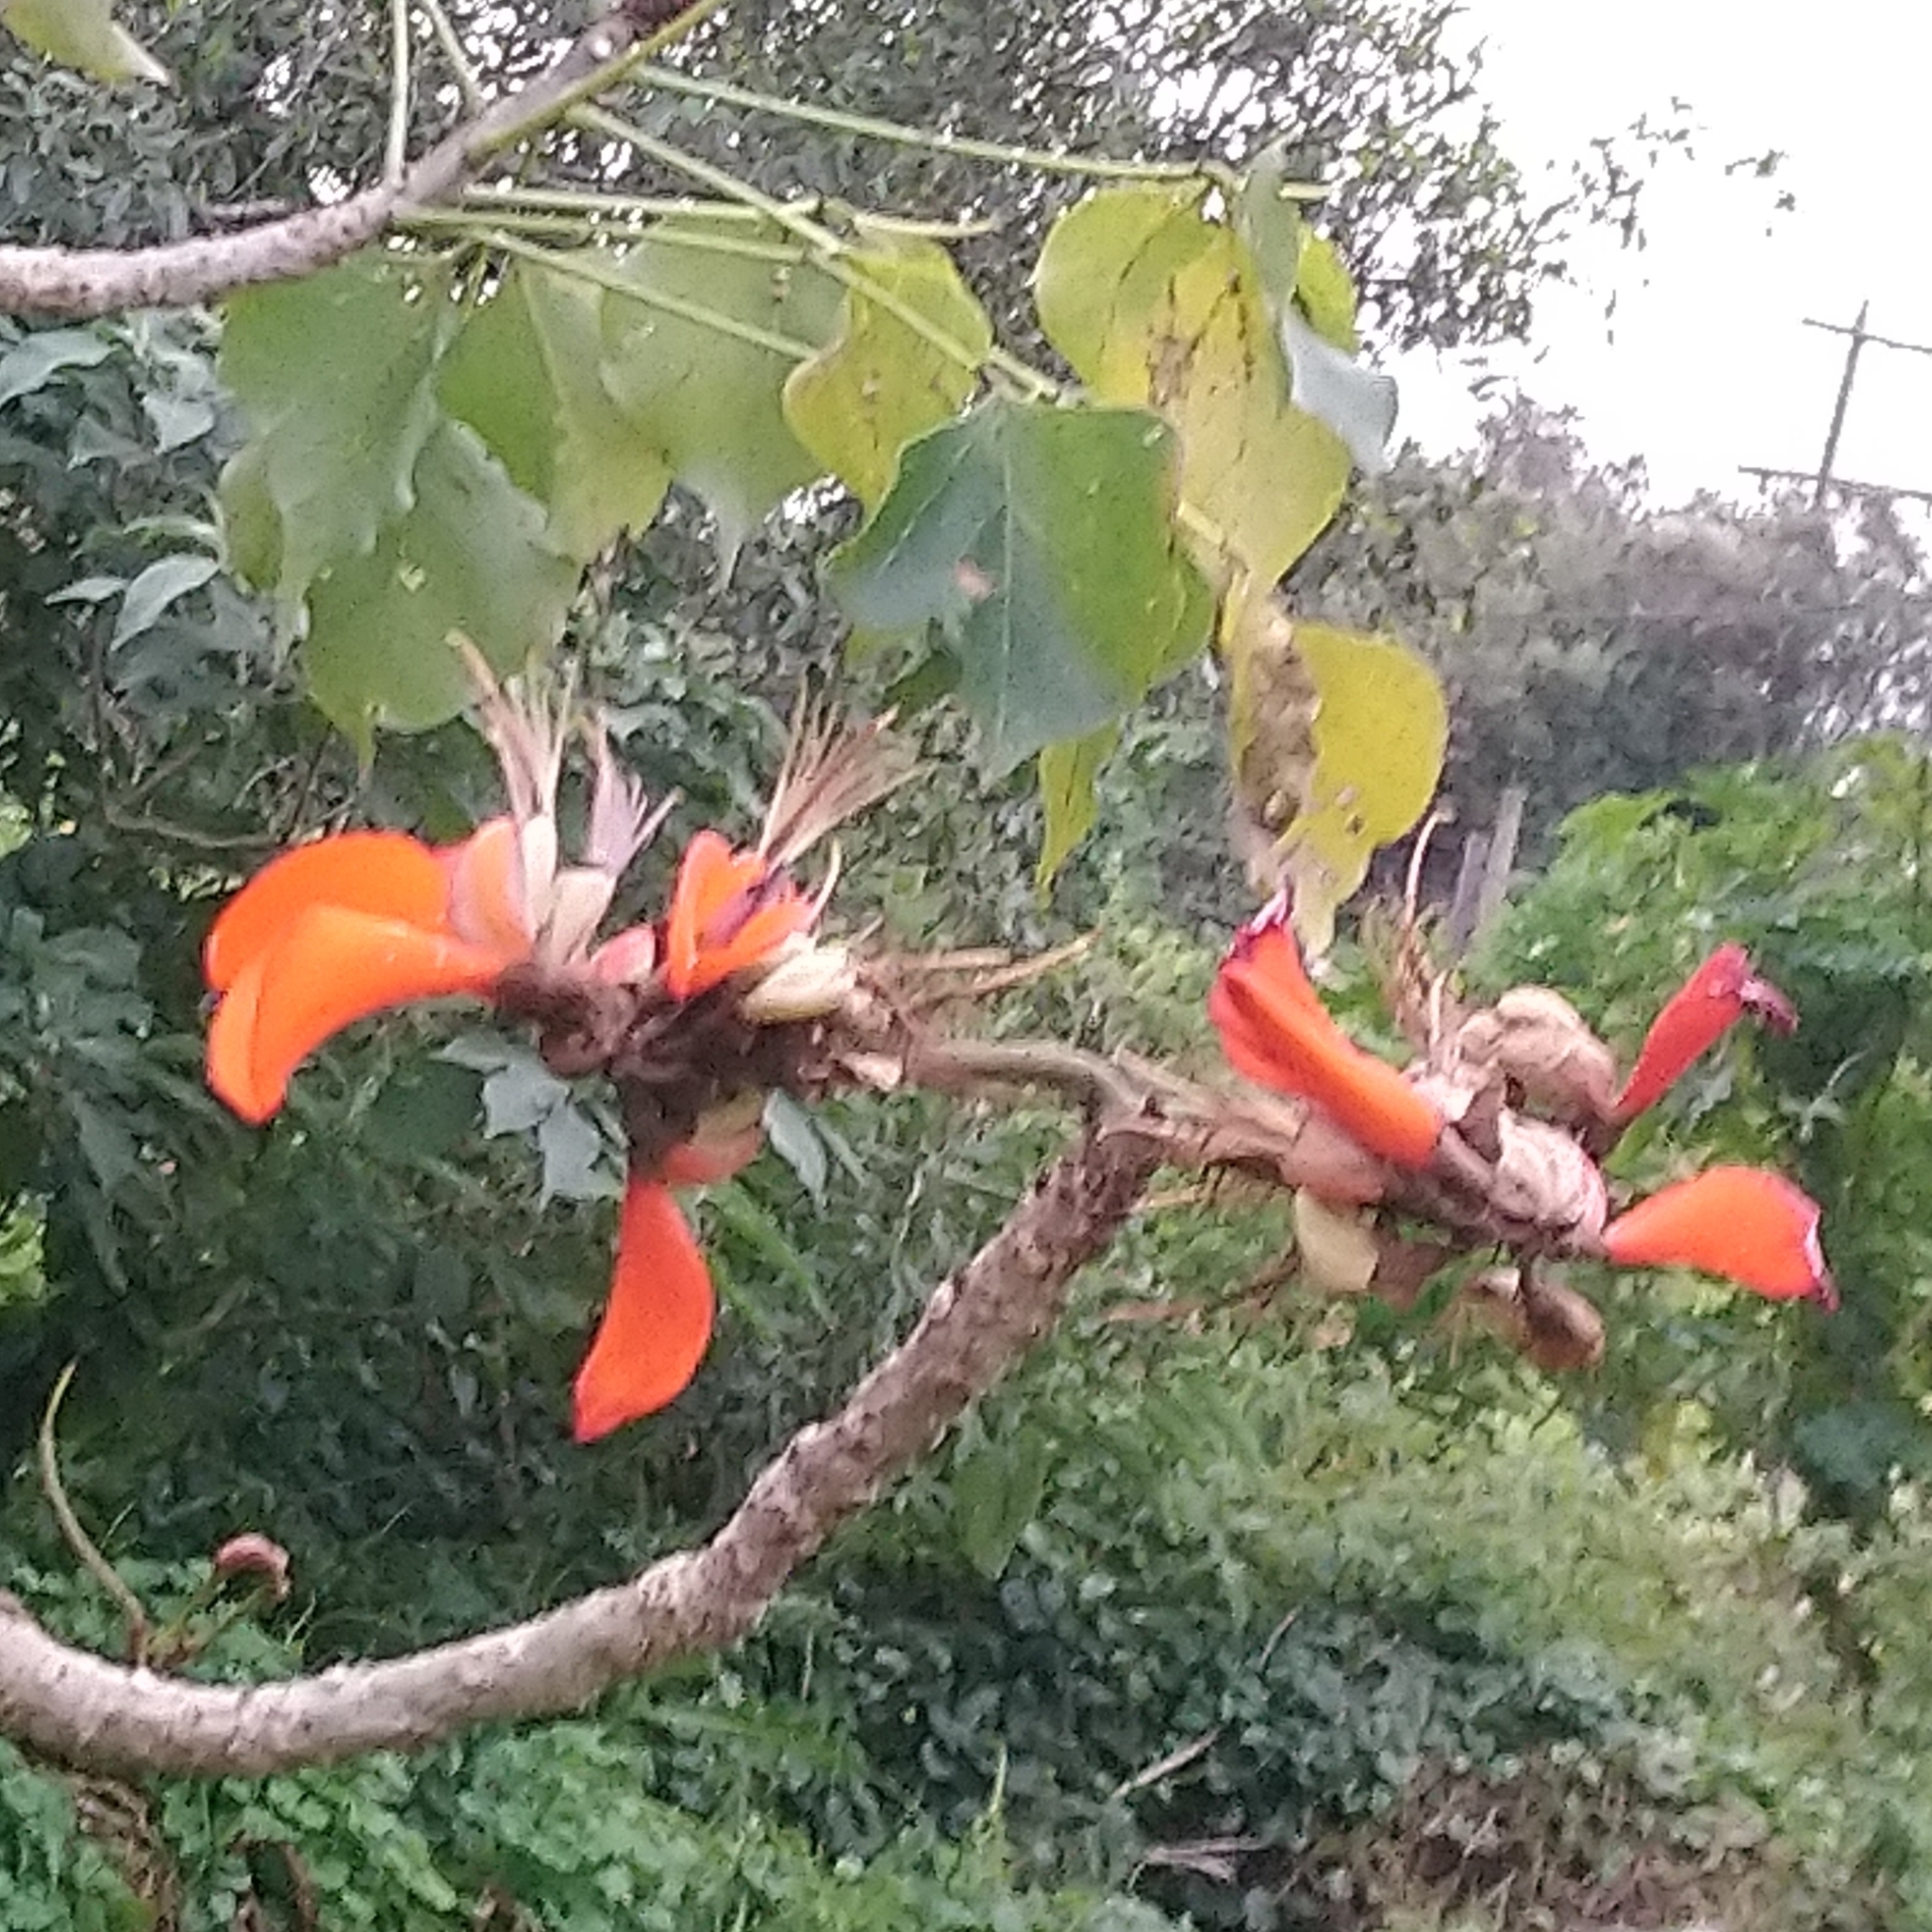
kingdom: Plantae
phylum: Tracheophyta
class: Magnoliopsida
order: Fabales
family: Fabaceae
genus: Erythrina
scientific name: Erythrina caffra
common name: Coast coral tree
